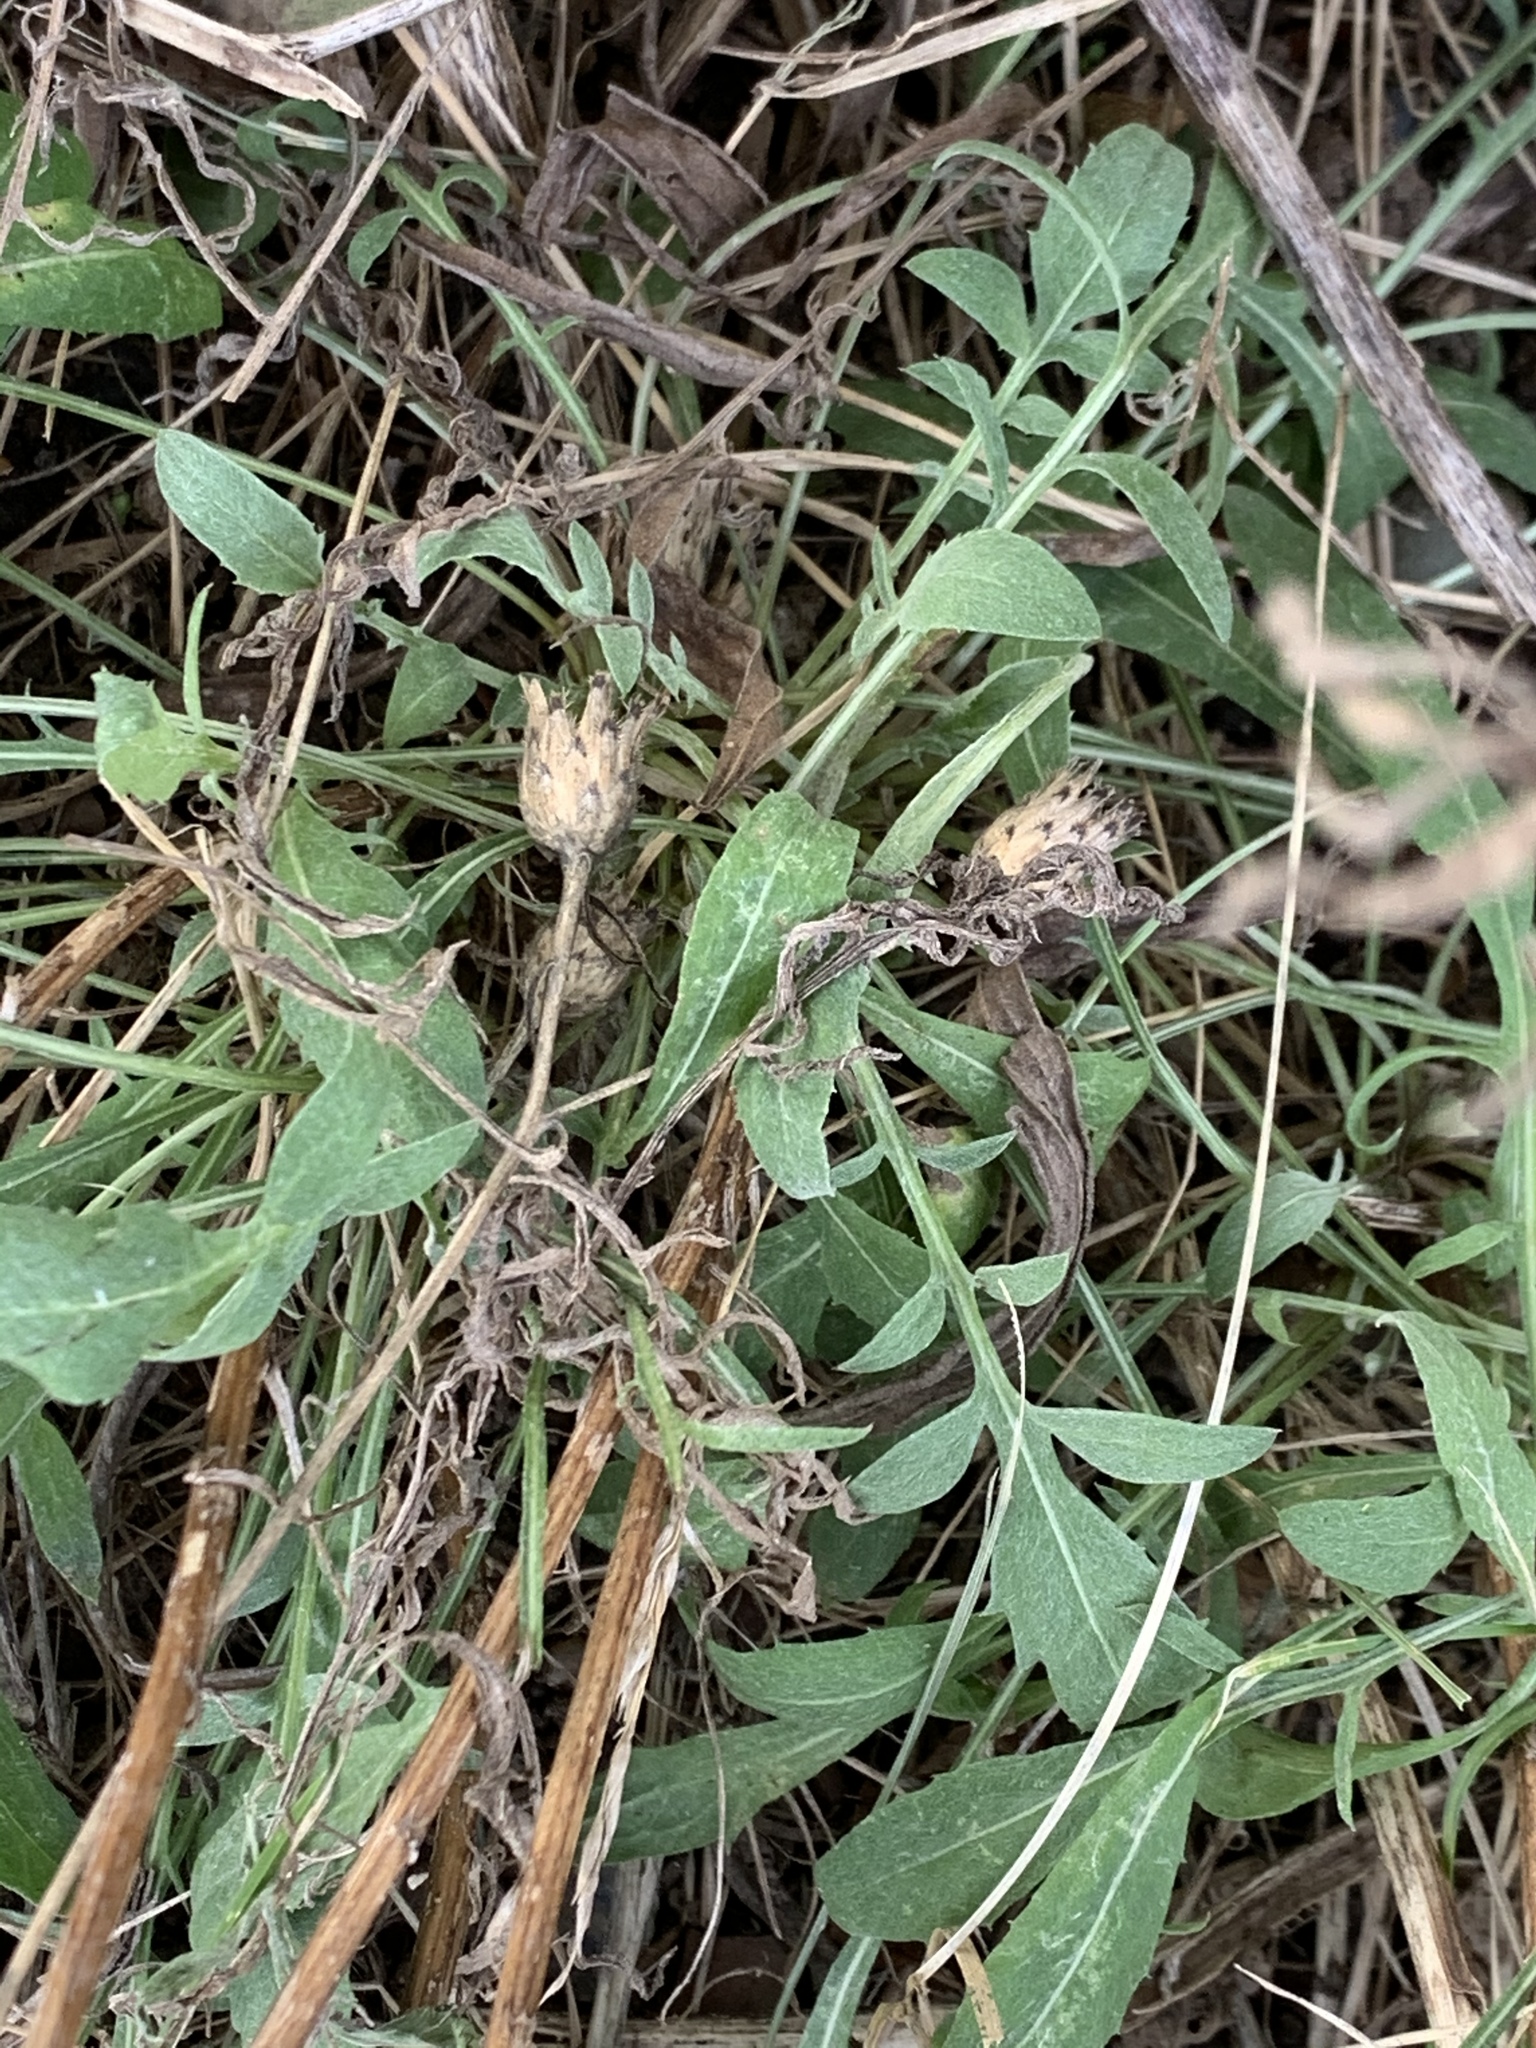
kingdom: Plantae
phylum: Tracheophyta
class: Magnoliopsida
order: Asterales
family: Asteraceae
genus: Centaurea
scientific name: Centaurea stoebe
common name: Spotted knapweed
